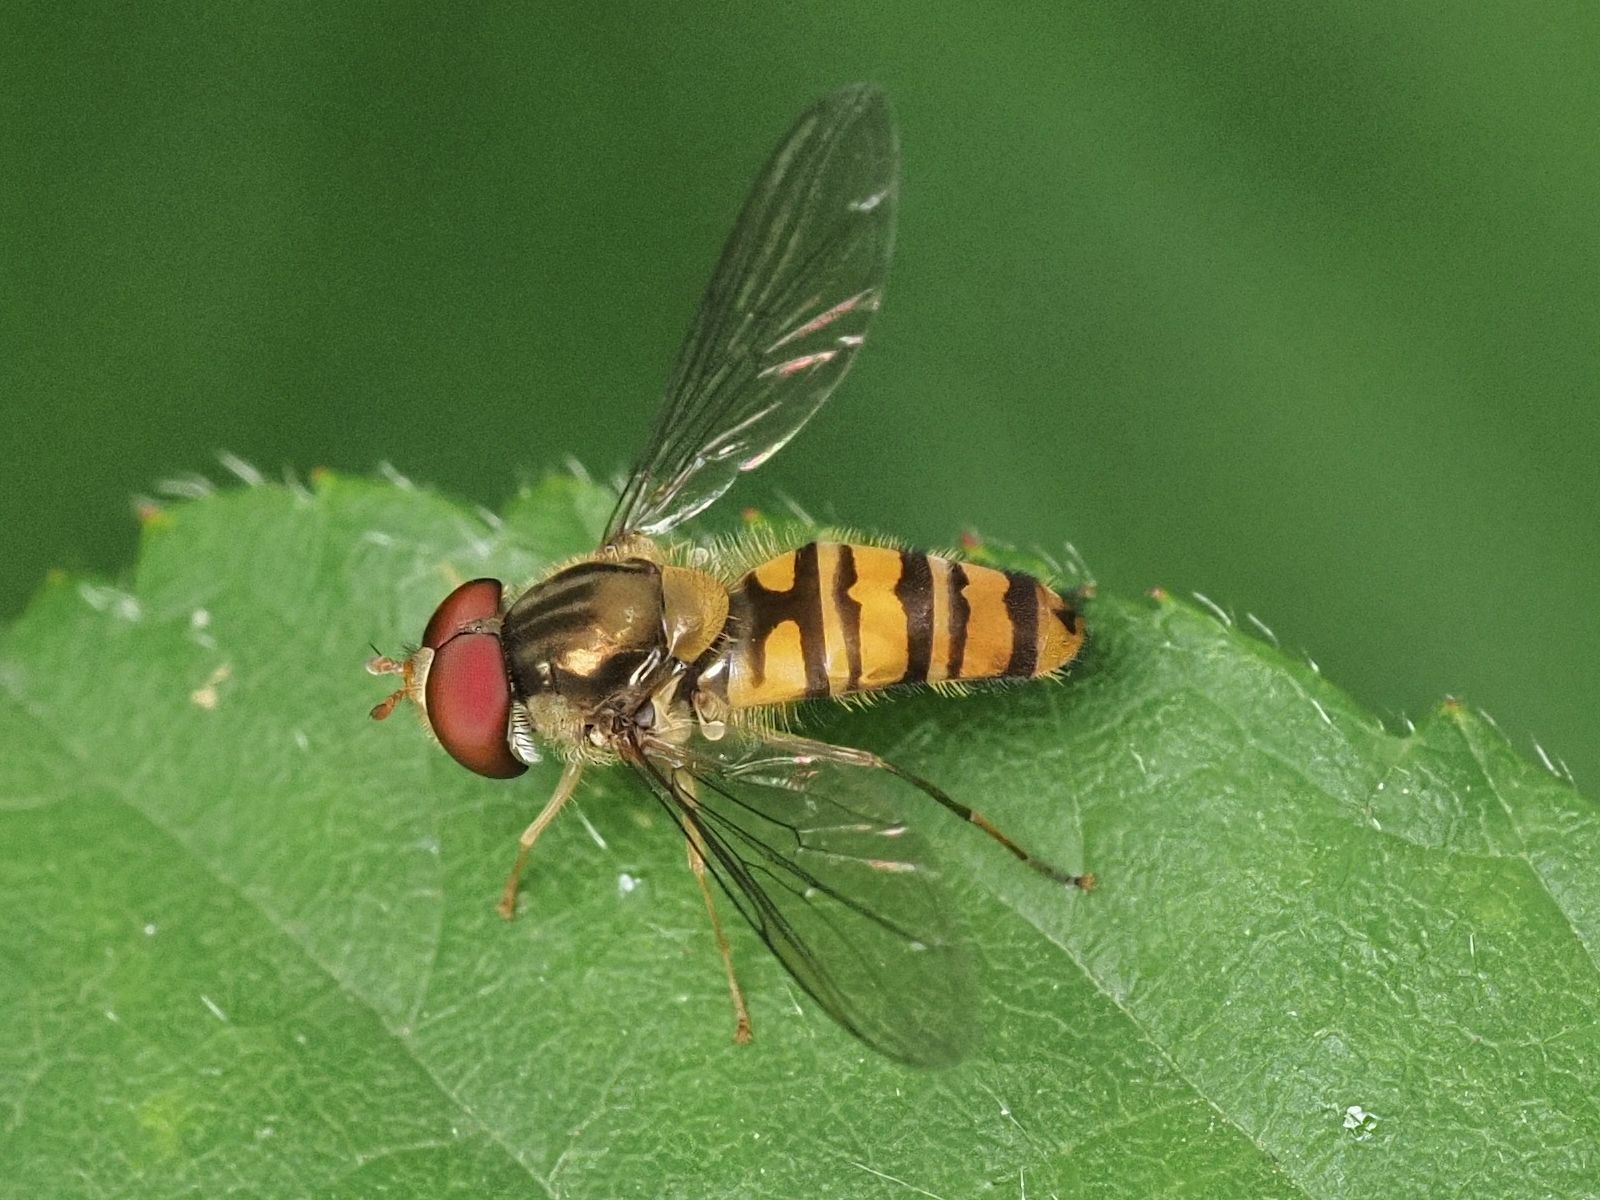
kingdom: Animalia
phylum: Arthropoda
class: Insecta
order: Diptera
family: Syrphidae
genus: Episyrphus
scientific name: Episyrphus balteatus
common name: Marmalade hoverfly
